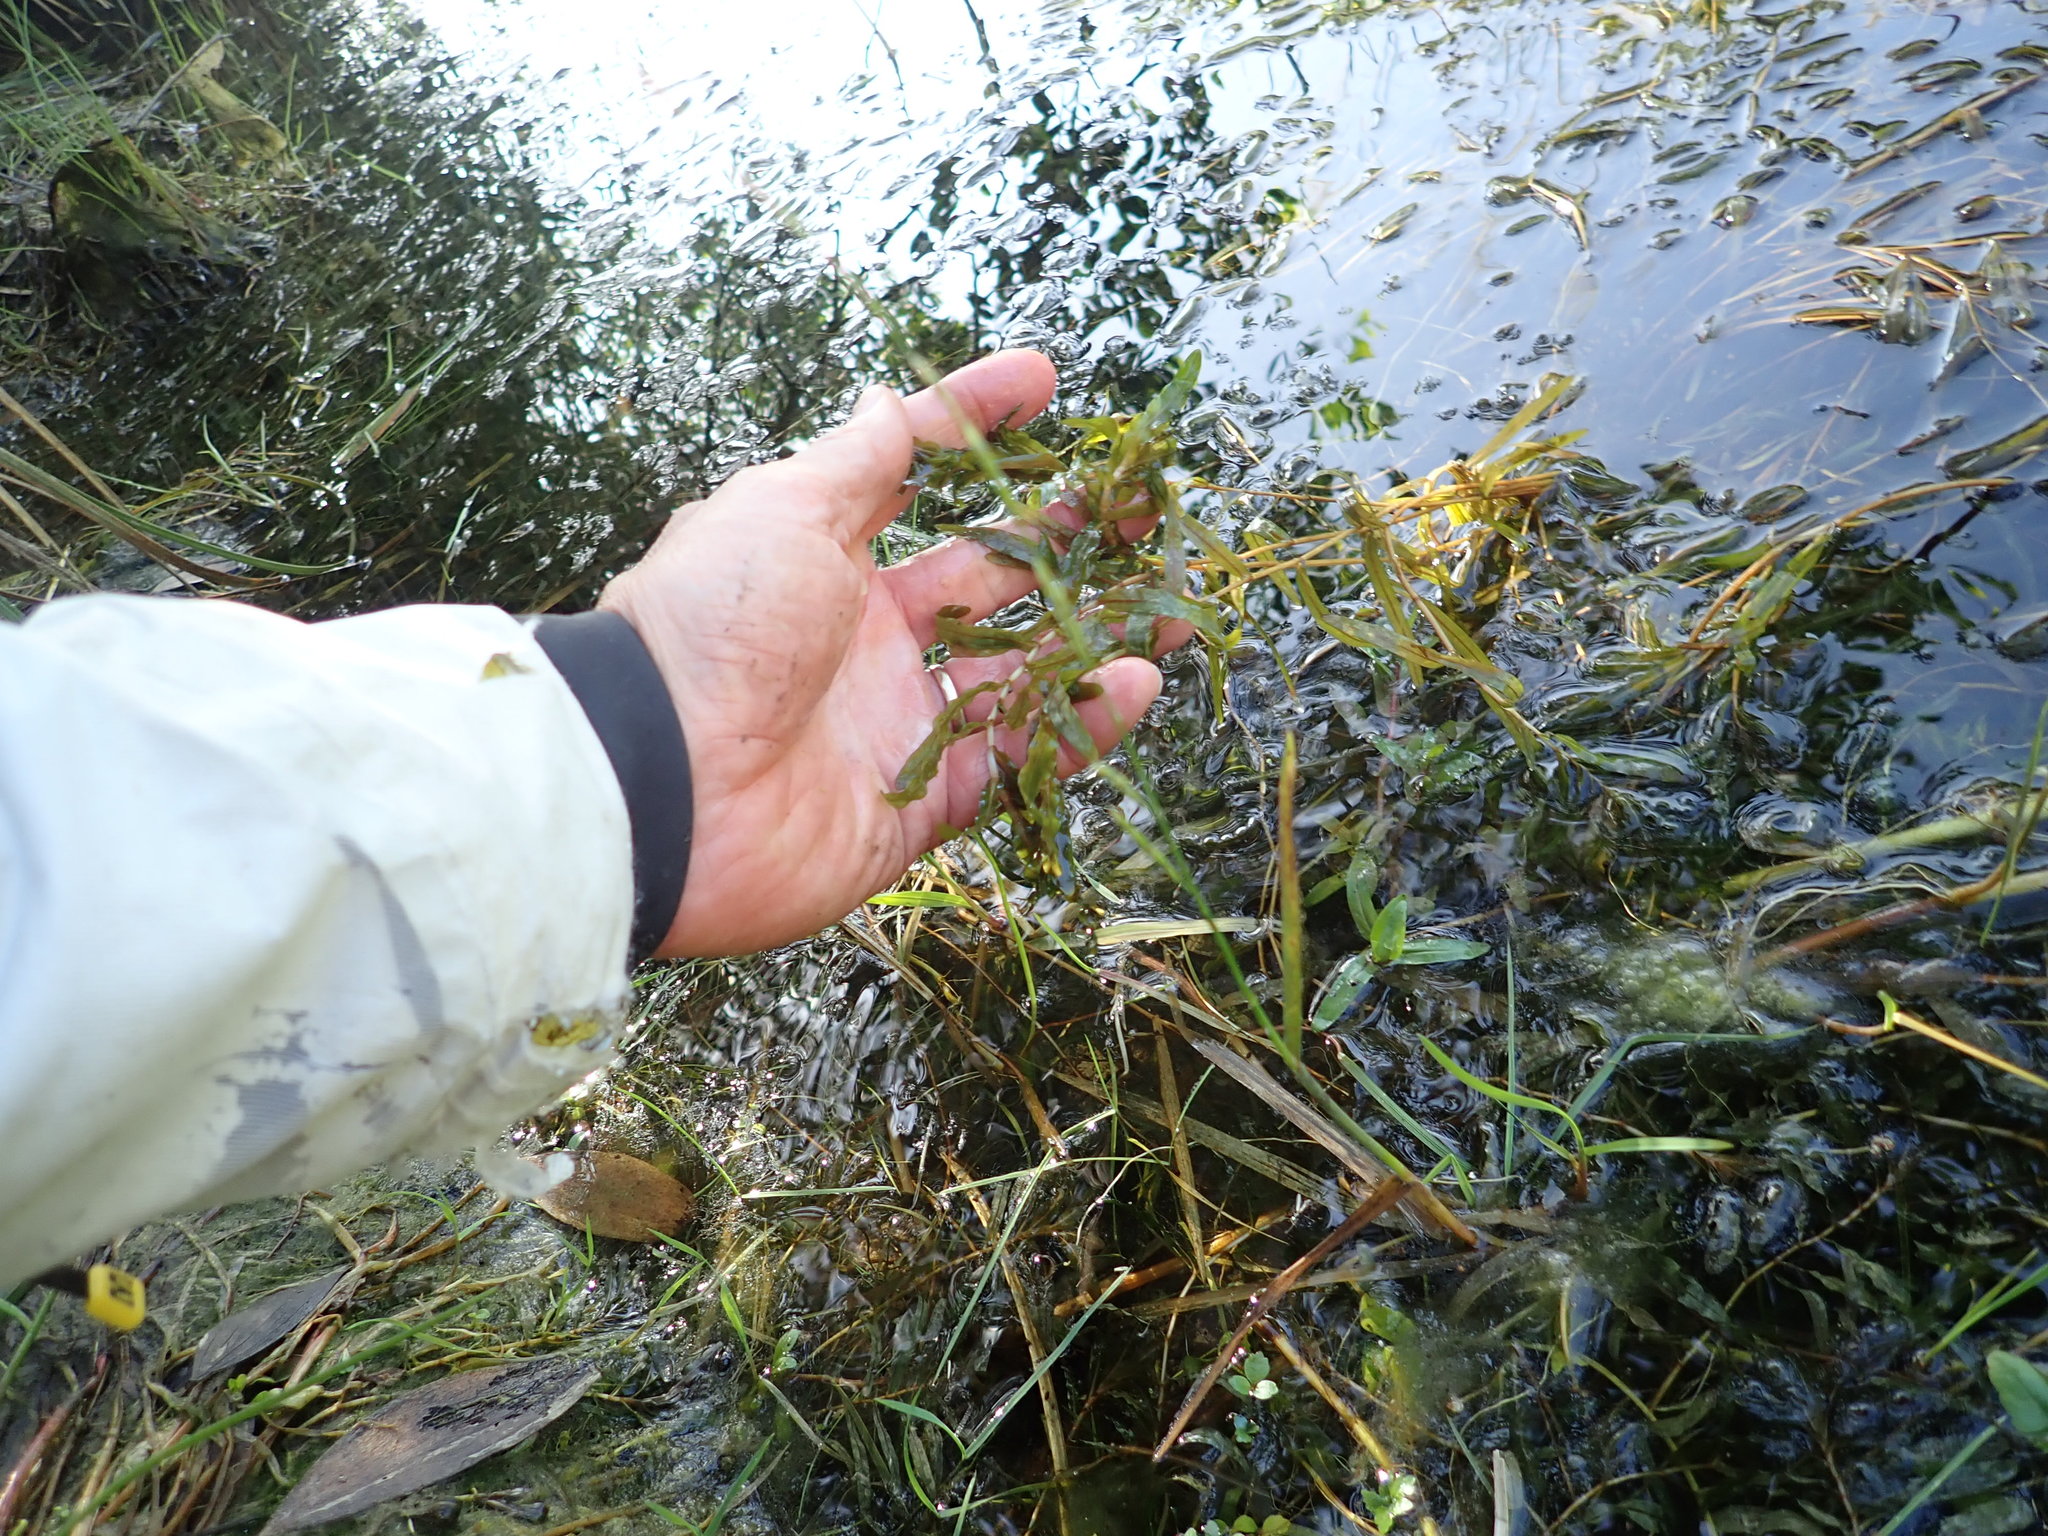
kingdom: Plantae
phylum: Tracheophyta
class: Liliopsida
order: Alismatales
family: Potamogetonaceae
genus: Potamogeton
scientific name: Potamogeton crispus
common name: Curled pondweed
